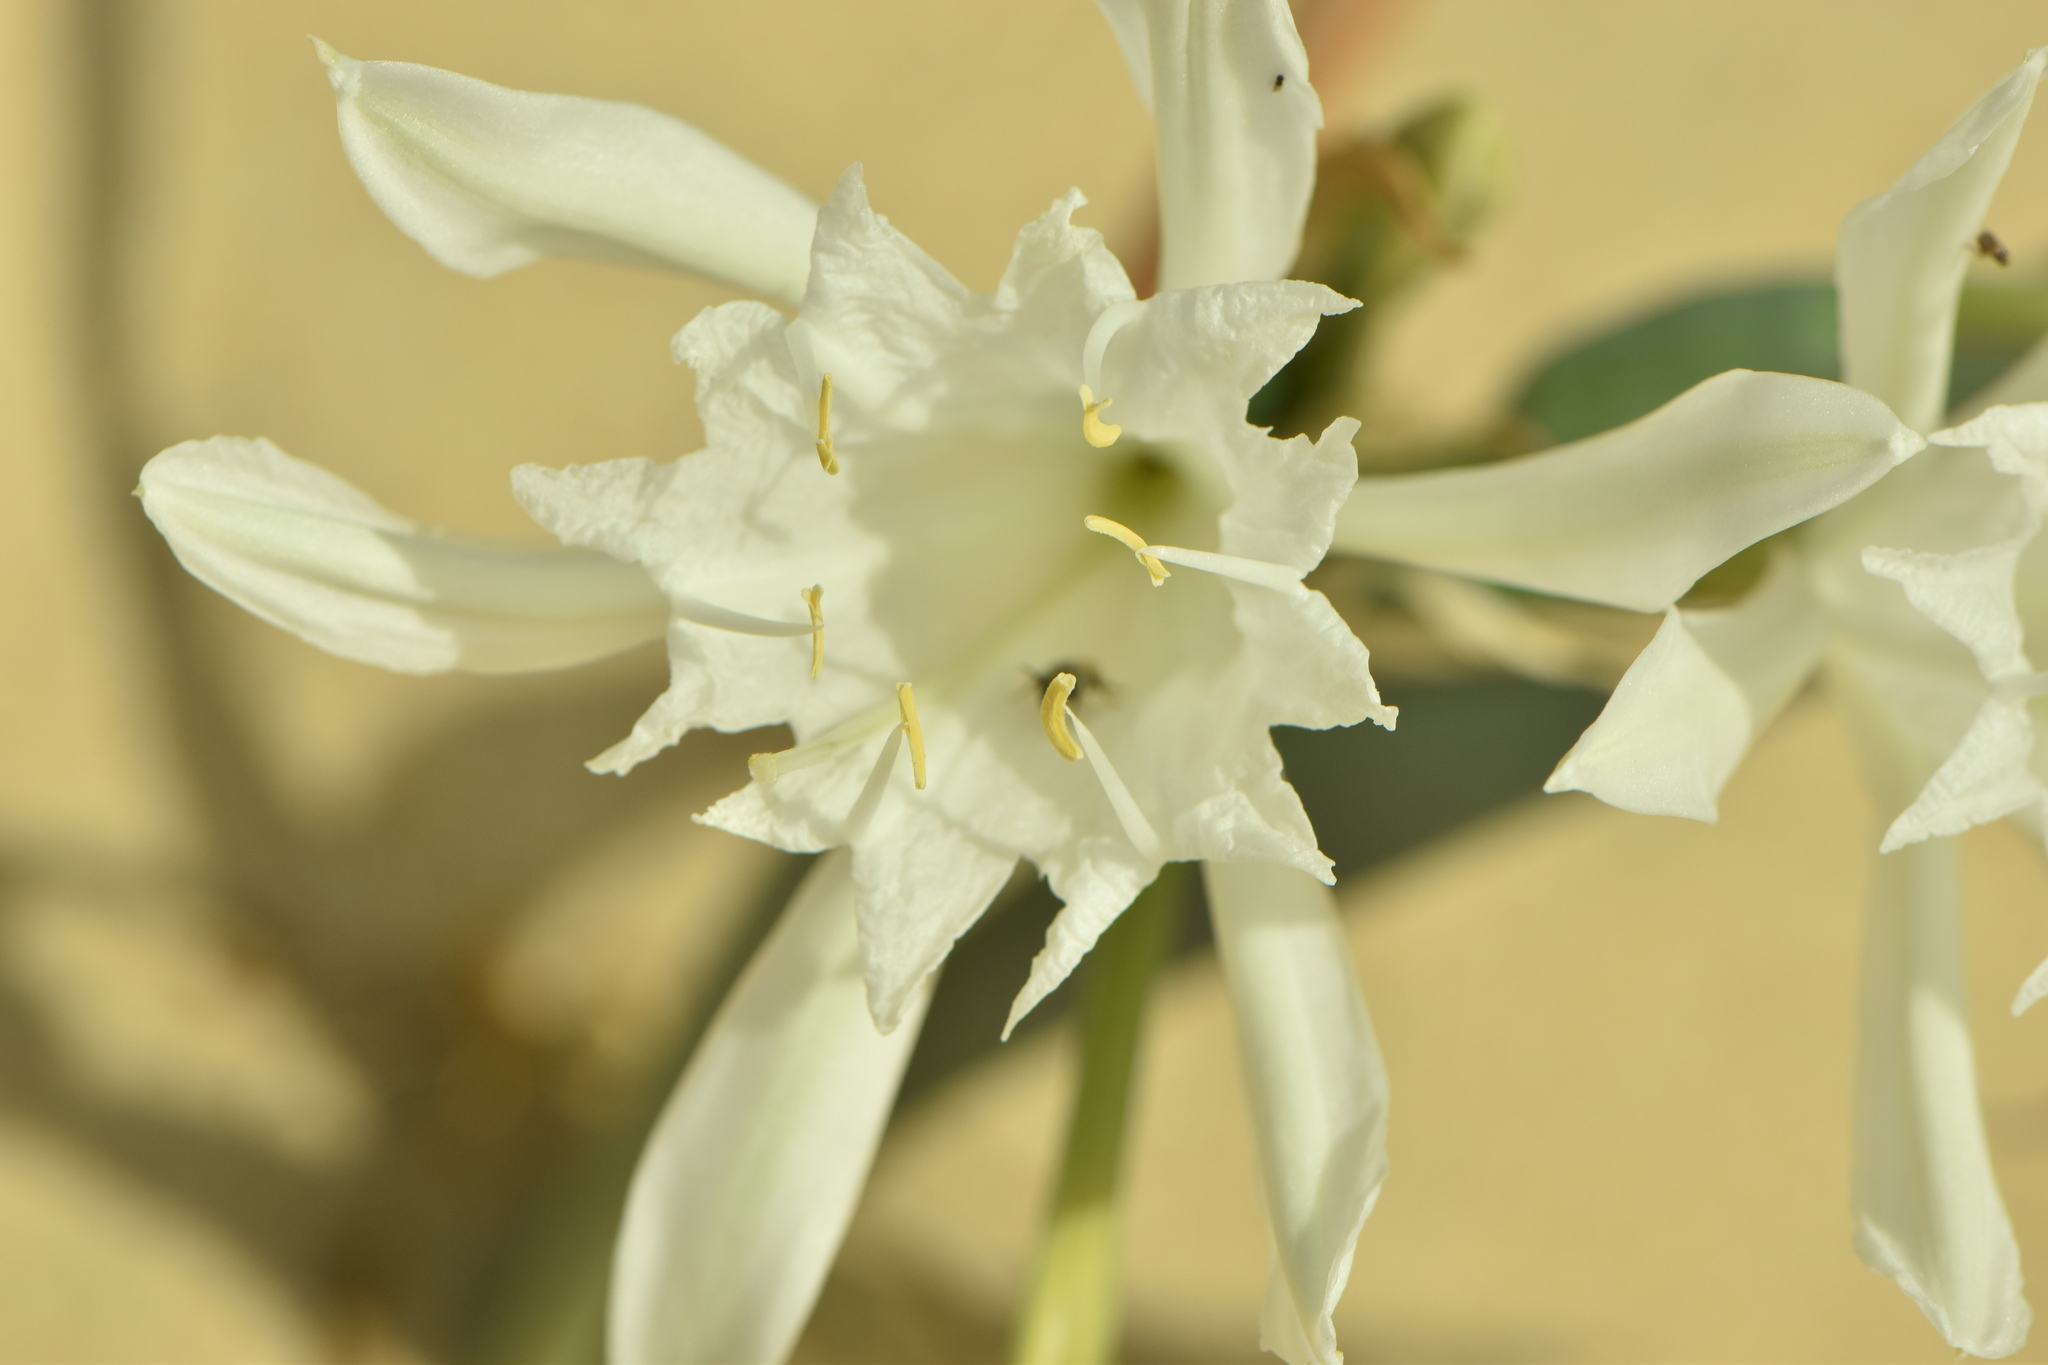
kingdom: Plantae
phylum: Tracheophyta
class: Liliopsida
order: Asparagales
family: Amaryllidaceae
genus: Pancratium
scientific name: Pancratium maritimum
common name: Sea-daffodil
